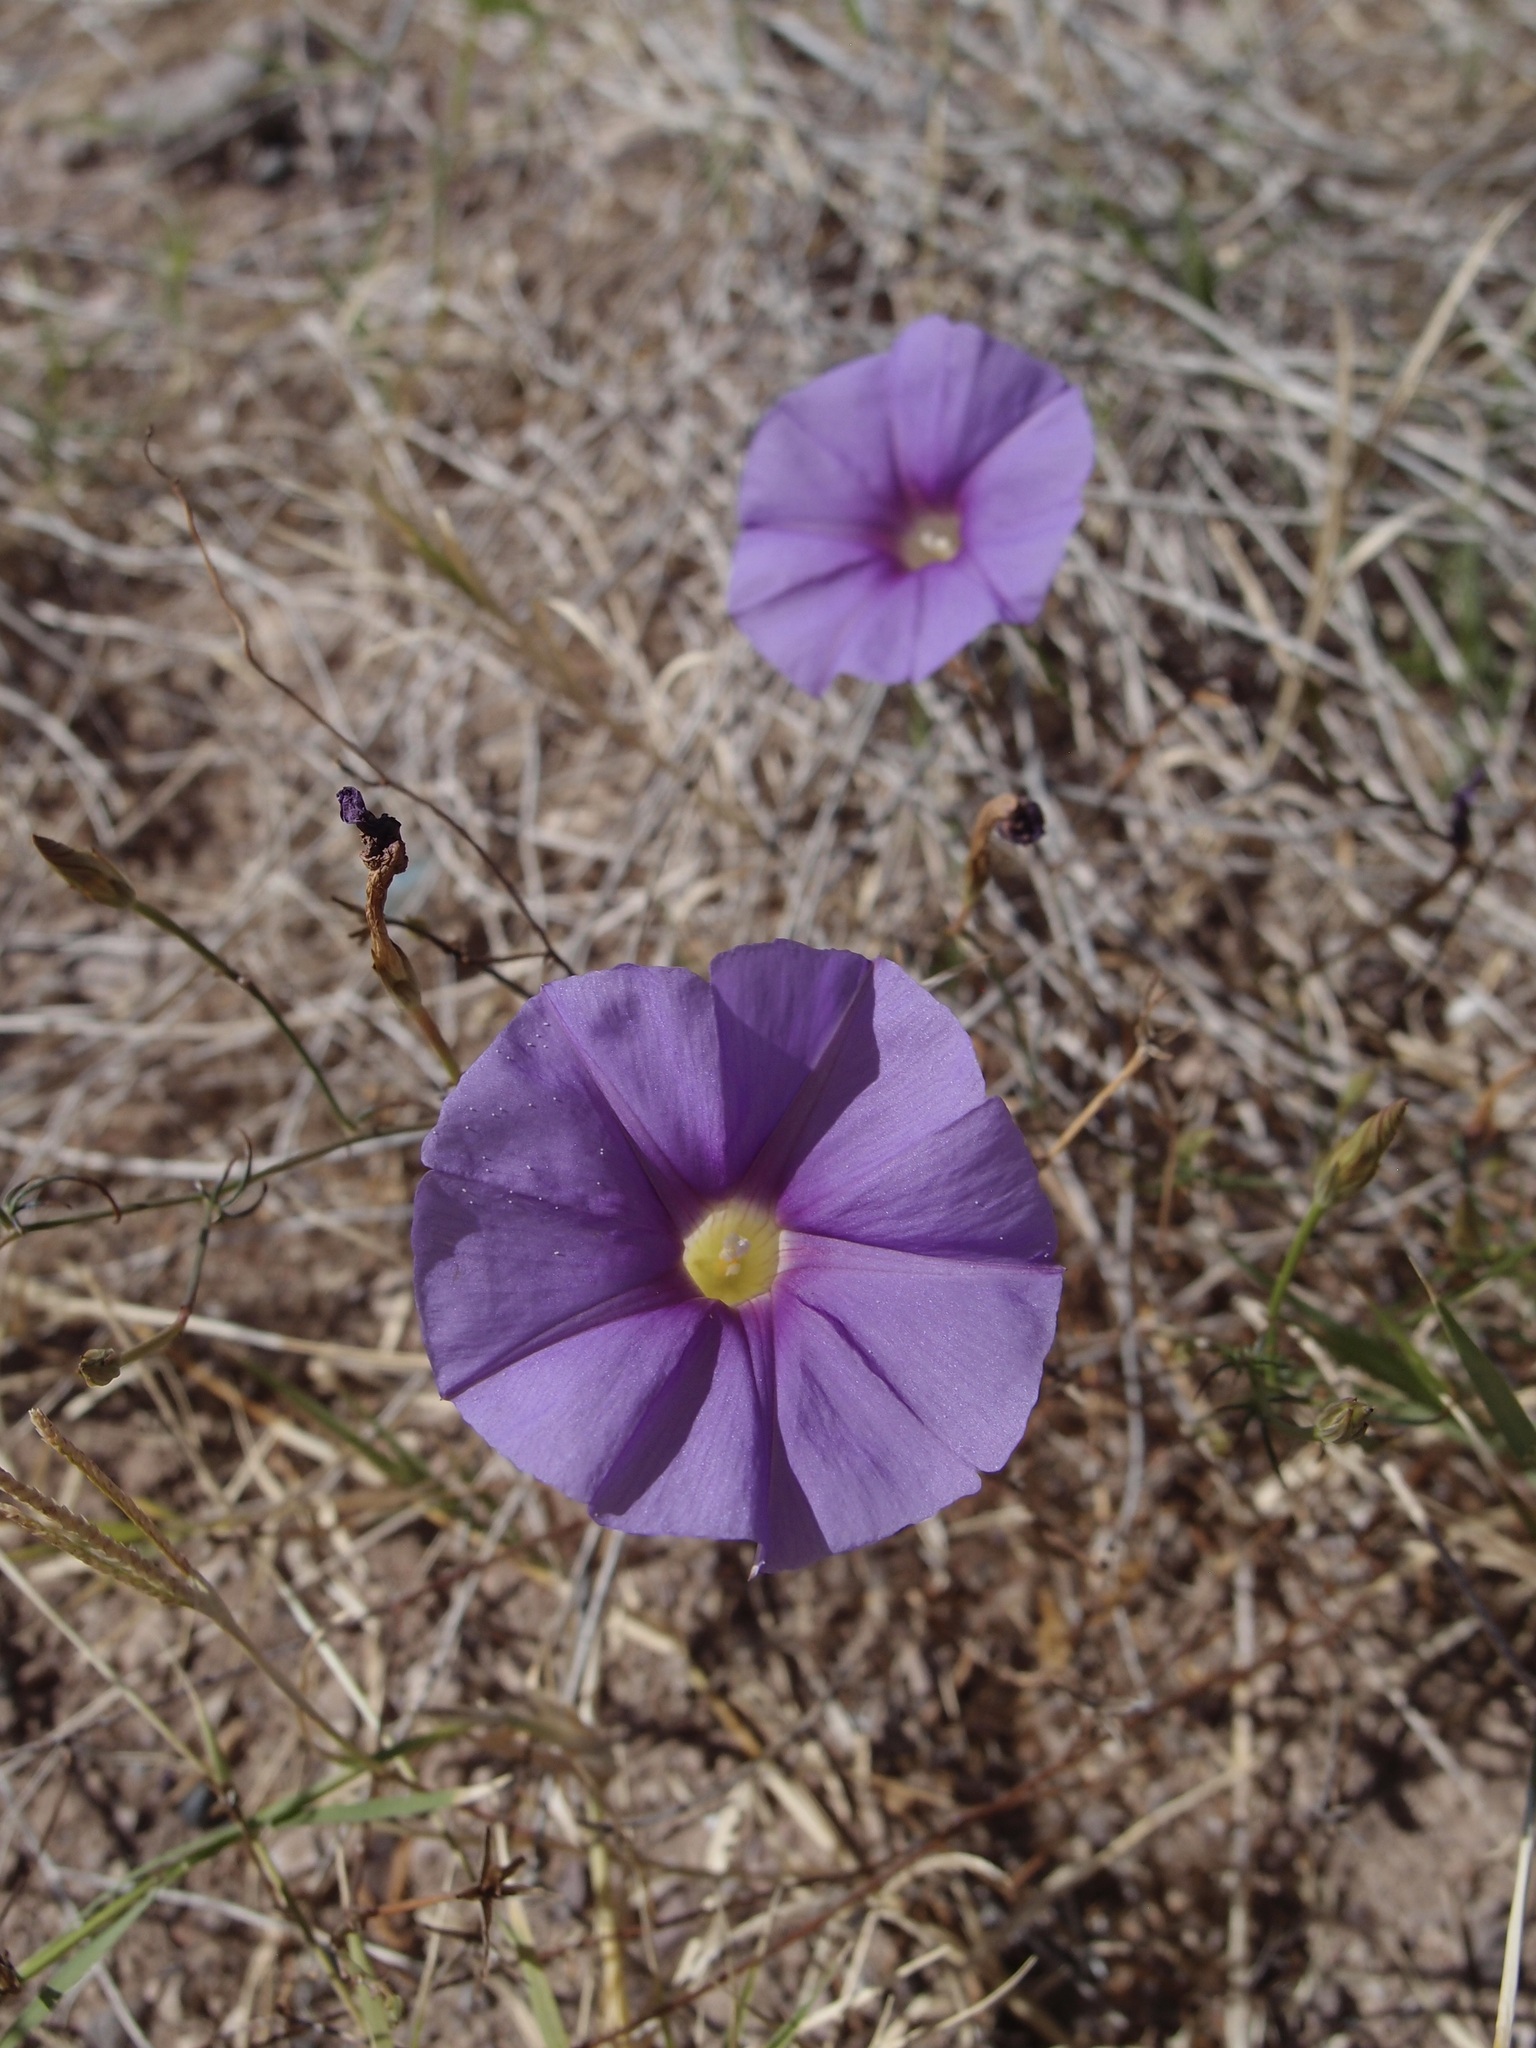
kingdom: Plantae
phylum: Tracheophyta
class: Magnoliopsida
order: Solanales
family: Convolvulaceae
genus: Ipomoea
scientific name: Ipomoea ternifolia
